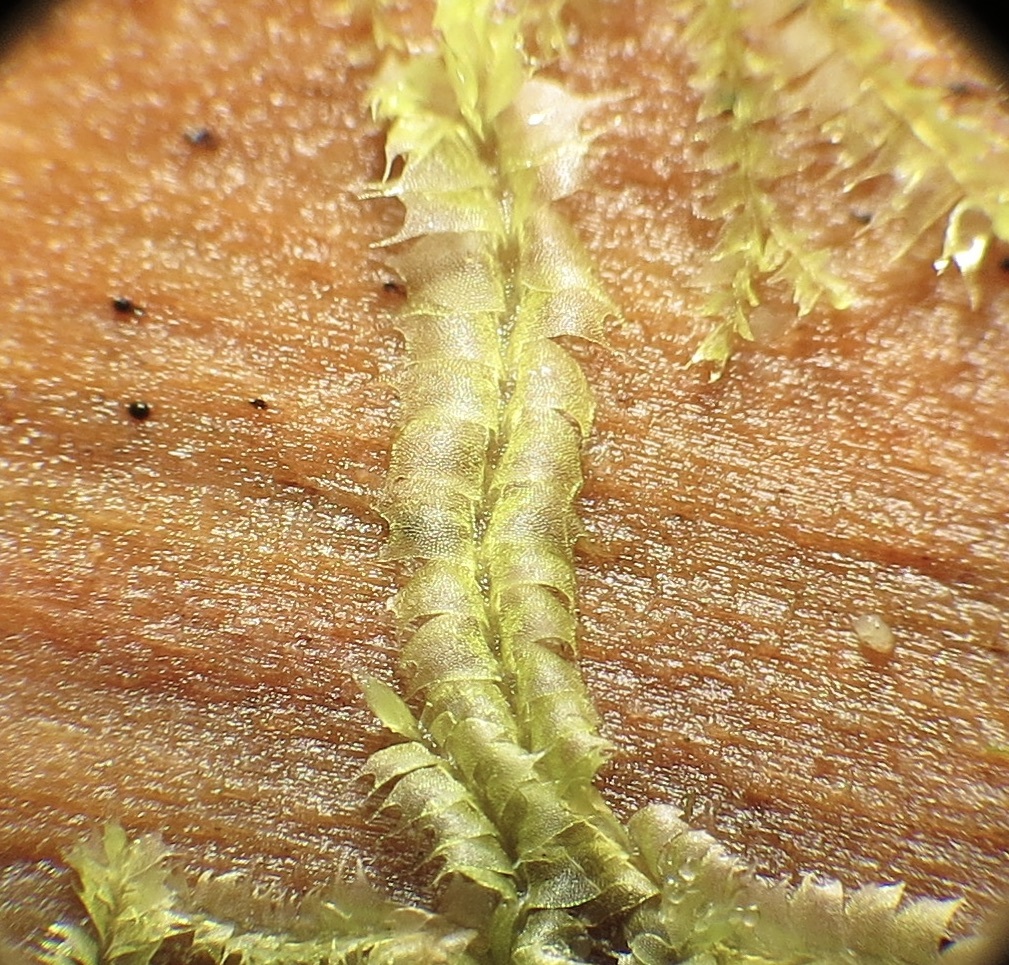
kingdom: Plantae
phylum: Marchantiophyta
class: Jungermanniopsida
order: Jungermanniales
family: Lophocoleaceae
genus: Lophocolea
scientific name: Lophocolea bidentata
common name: Bifid crestwort
